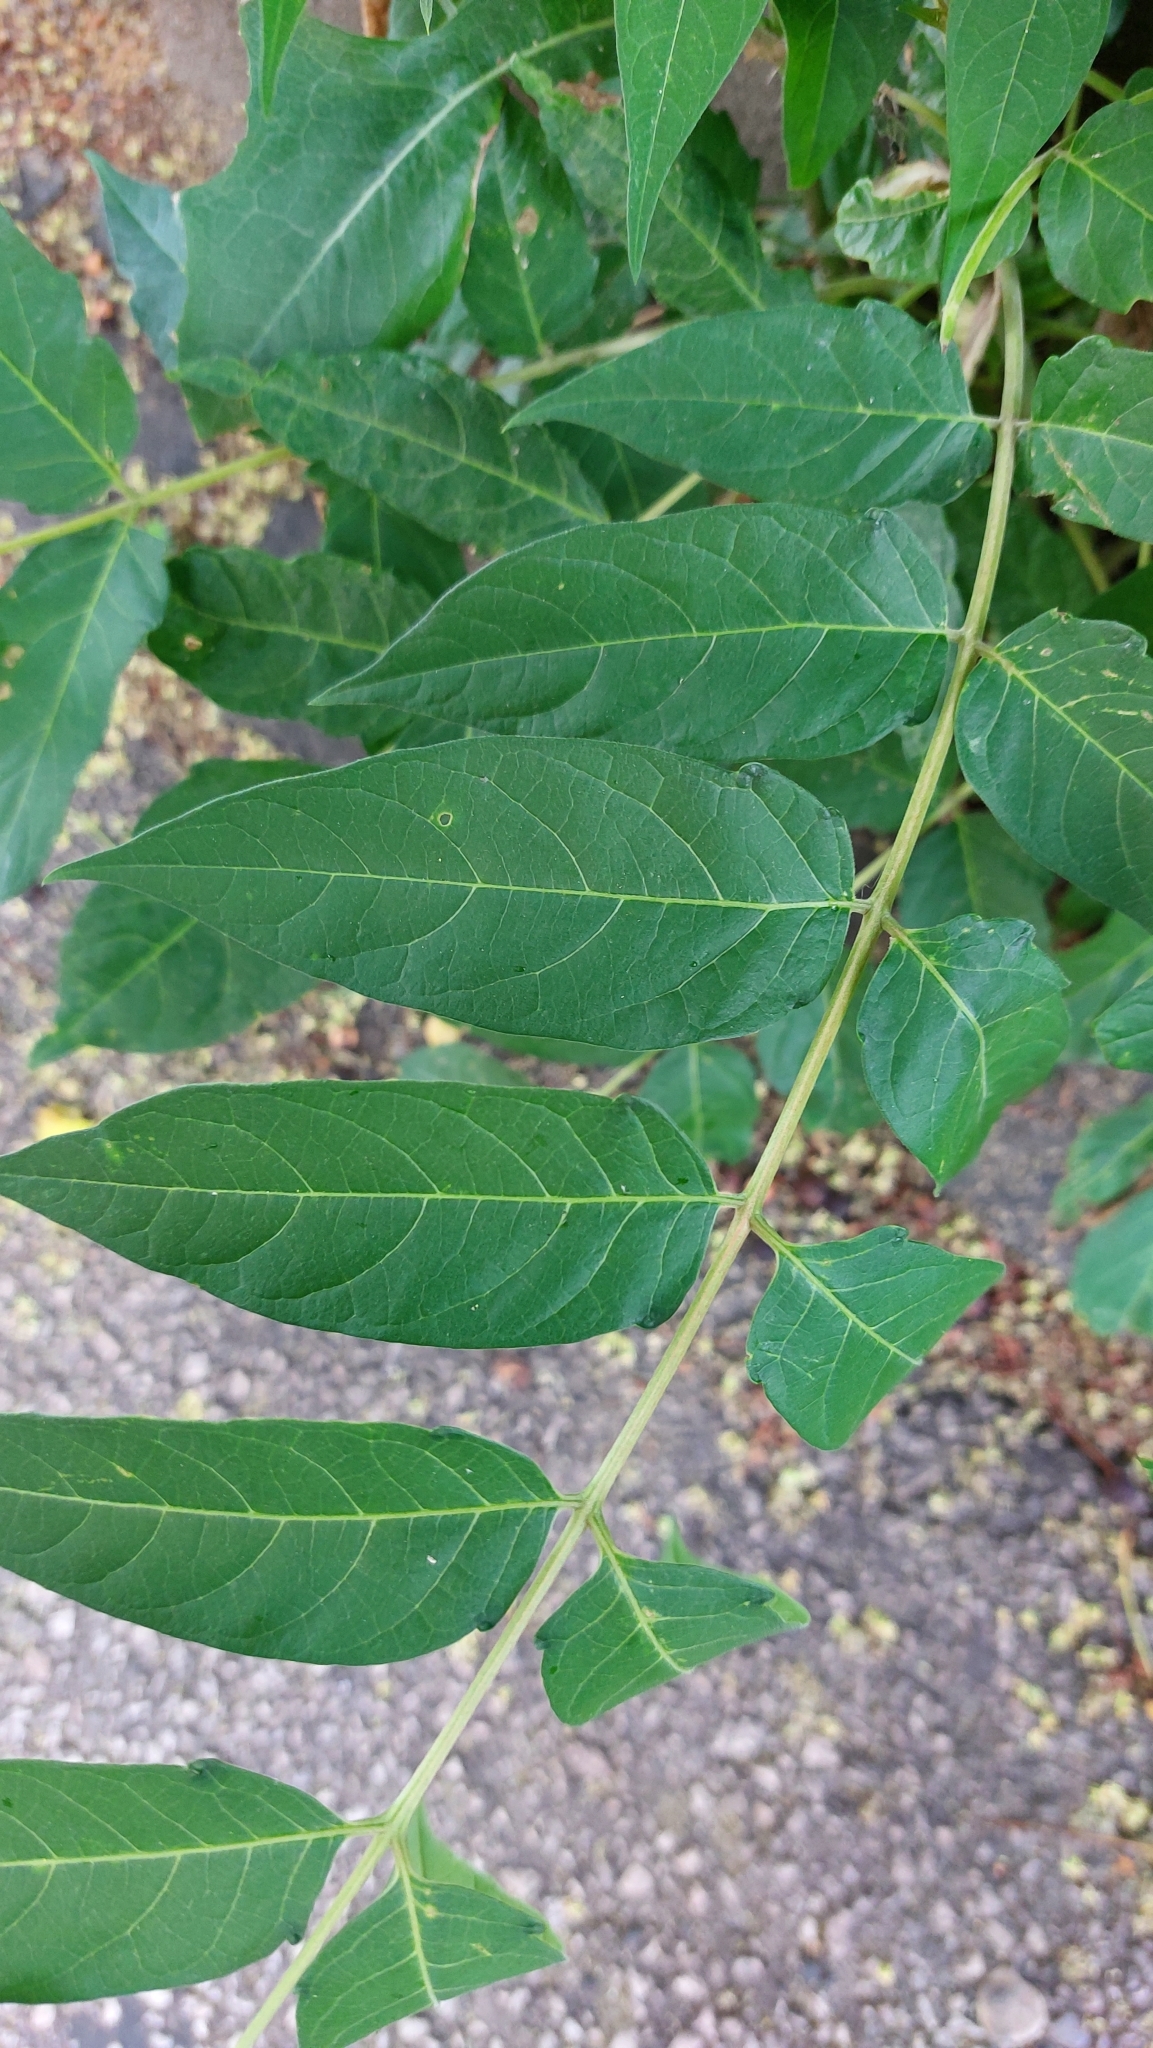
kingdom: Plantae
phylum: Tracheophyta
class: Magnoliopsida
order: Sapindales
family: Simaroubaceae
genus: Ailanthus
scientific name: Ailanthus altissima
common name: Tree-of-heaven
